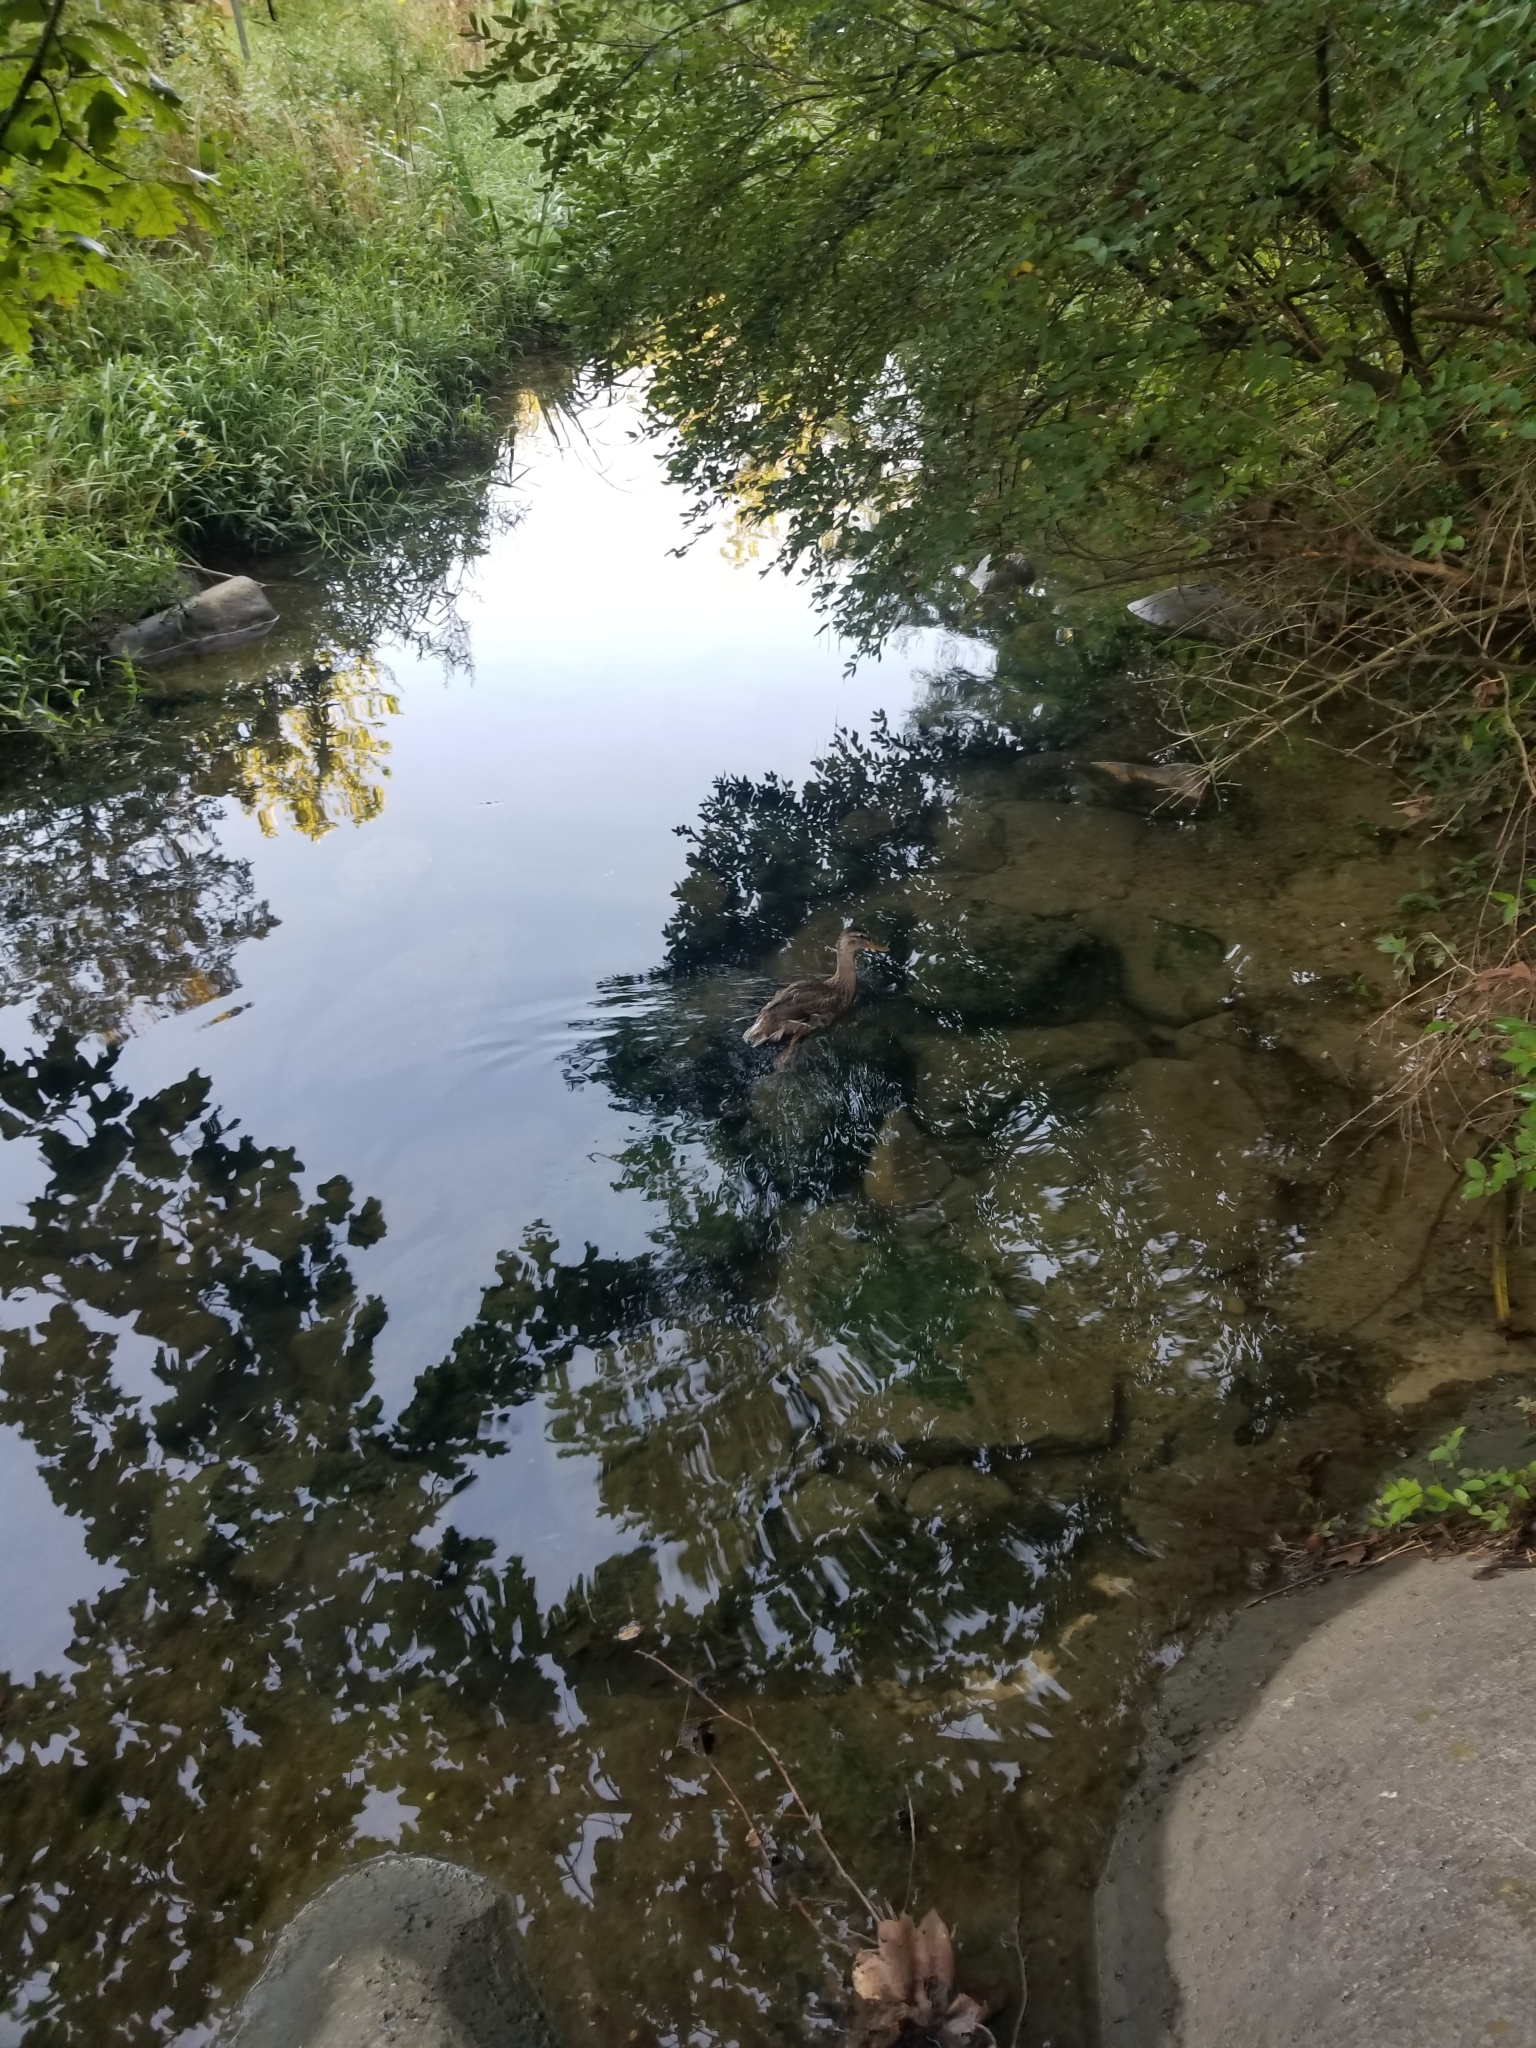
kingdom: Animalia
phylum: Chordata
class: Aves
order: Anseriformes
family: Anatidae
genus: Anas
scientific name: Anas platyrhynchos
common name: Mallard
